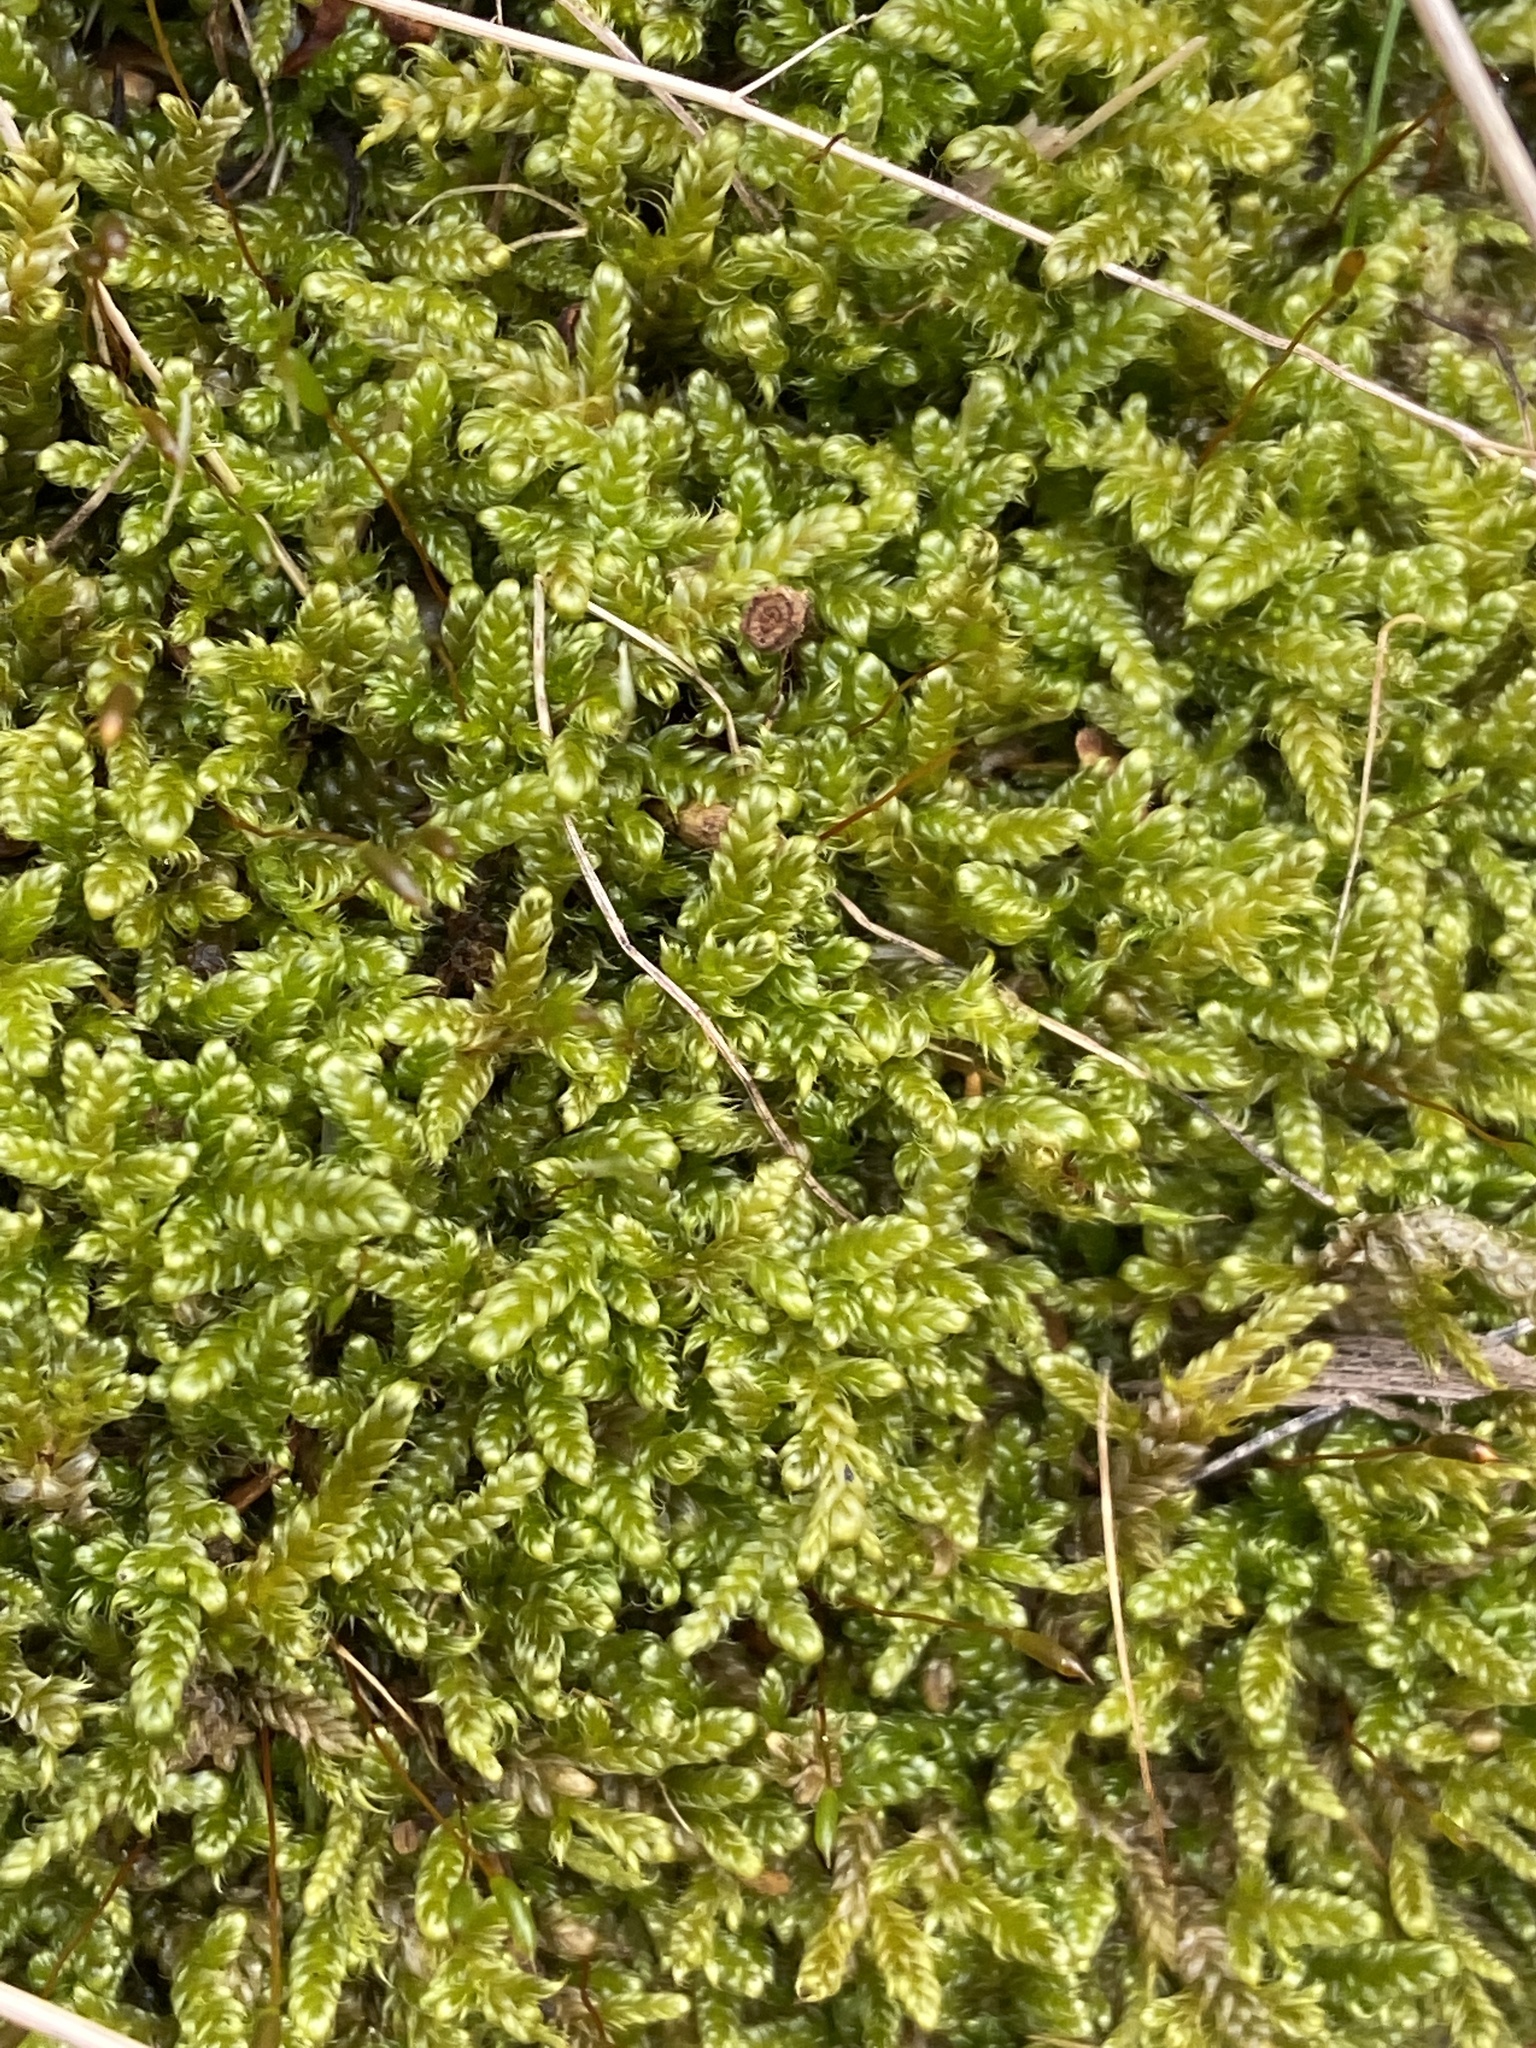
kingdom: Plantae
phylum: Bryophyta
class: Bryopsida
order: Hypnales
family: Hypnaceae
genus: Hypnum
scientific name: Hypnum cupressiforme
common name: Cypress-leaved plait-moss
